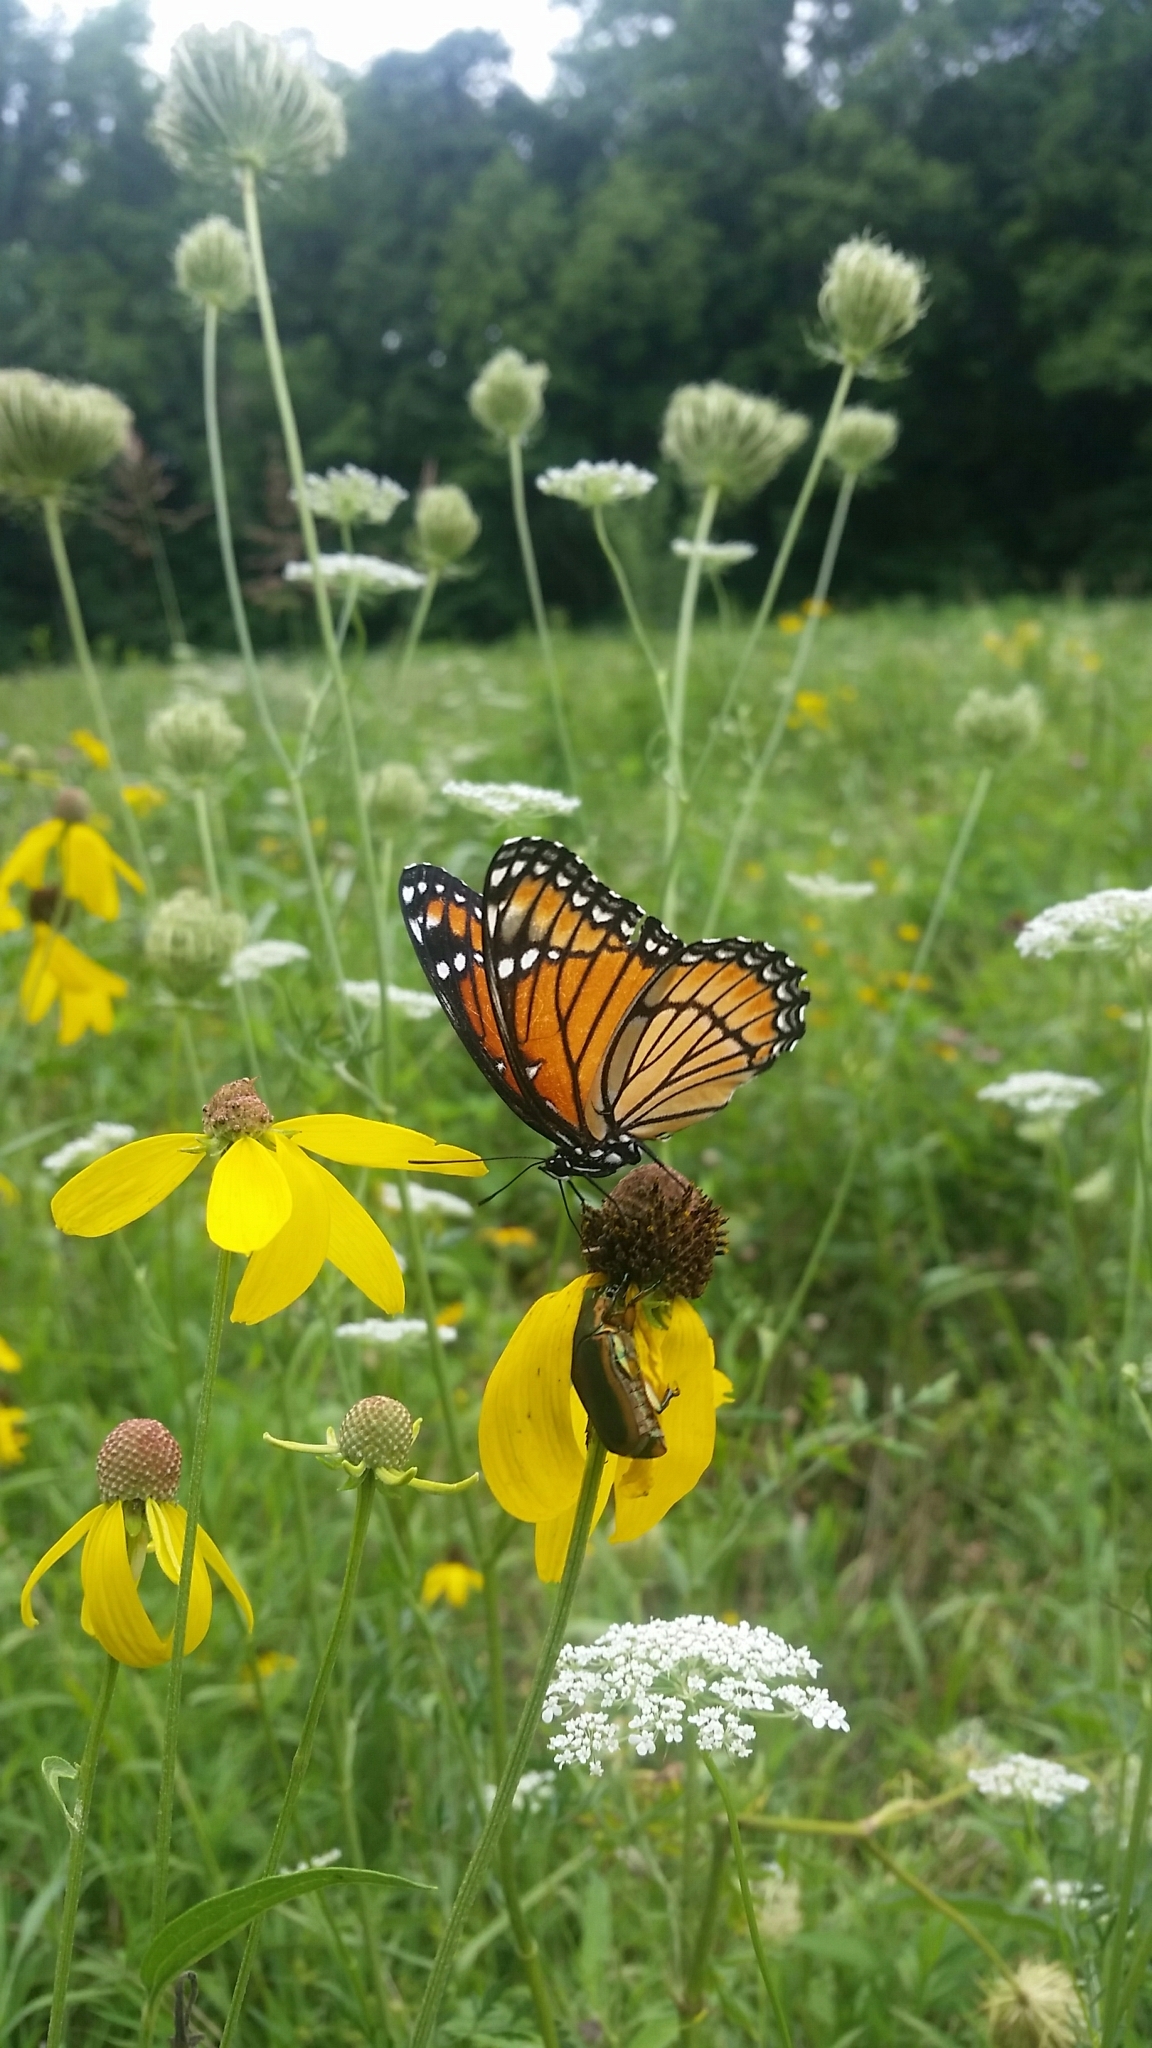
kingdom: Animalia
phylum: Arthropoda
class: Insecta
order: Lepidoptera
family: Nymphalidae
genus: Limenitis
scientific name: Limenitis archippus
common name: Viceroy
